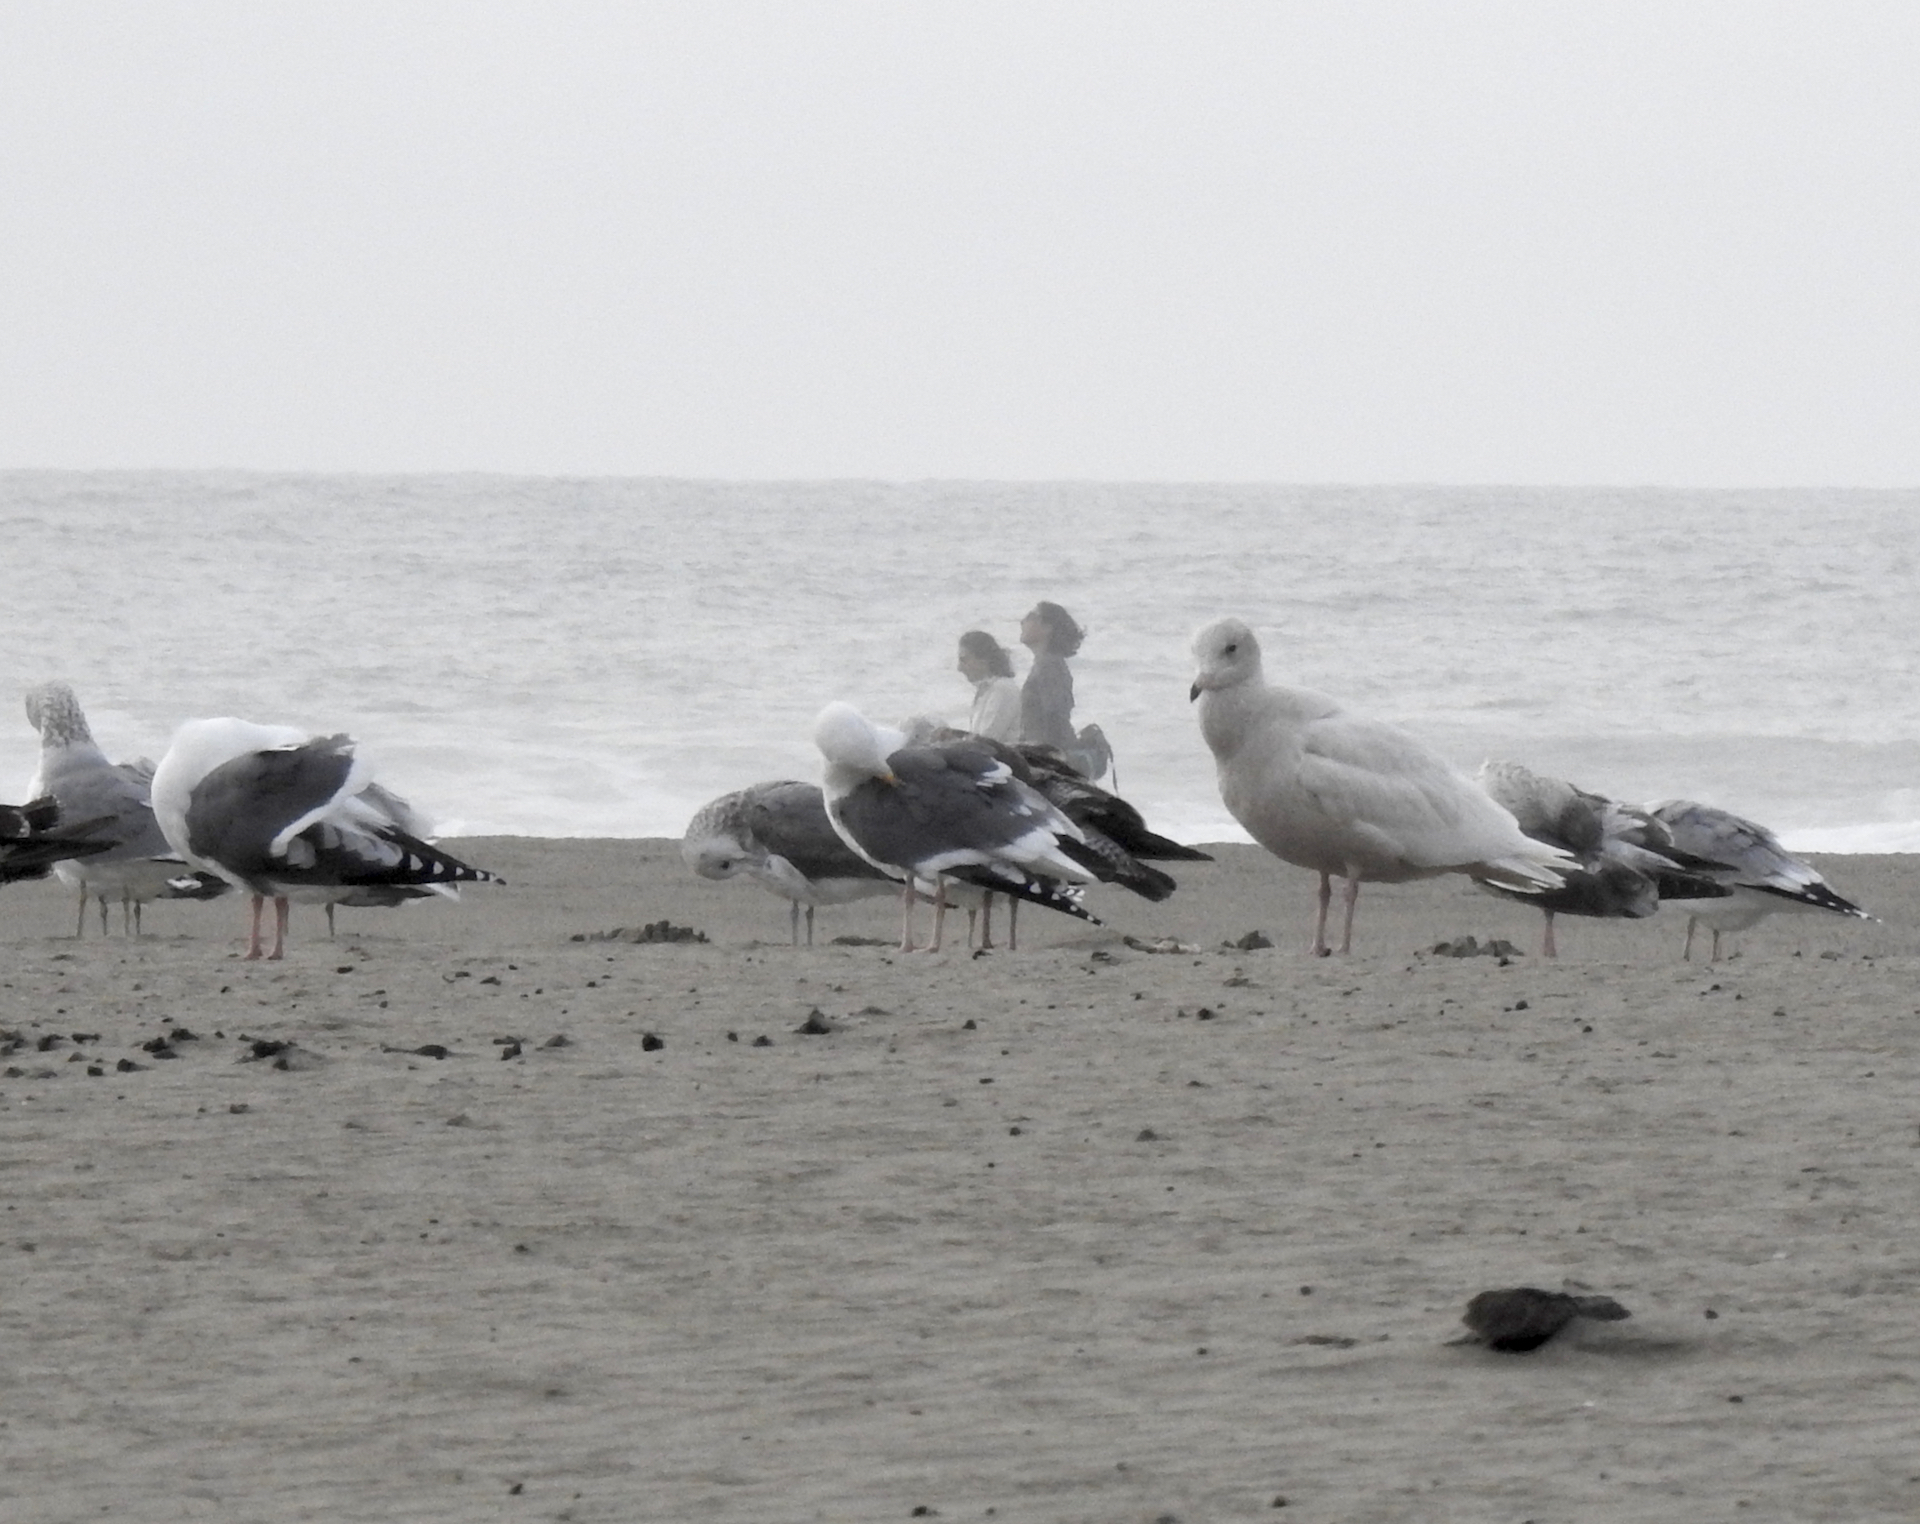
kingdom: Animalia
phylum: Chordata
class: Aves
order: Charadriiformes
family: Laridae
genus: Larus
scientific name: Larus hyperboreus
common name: Glaucous gull
